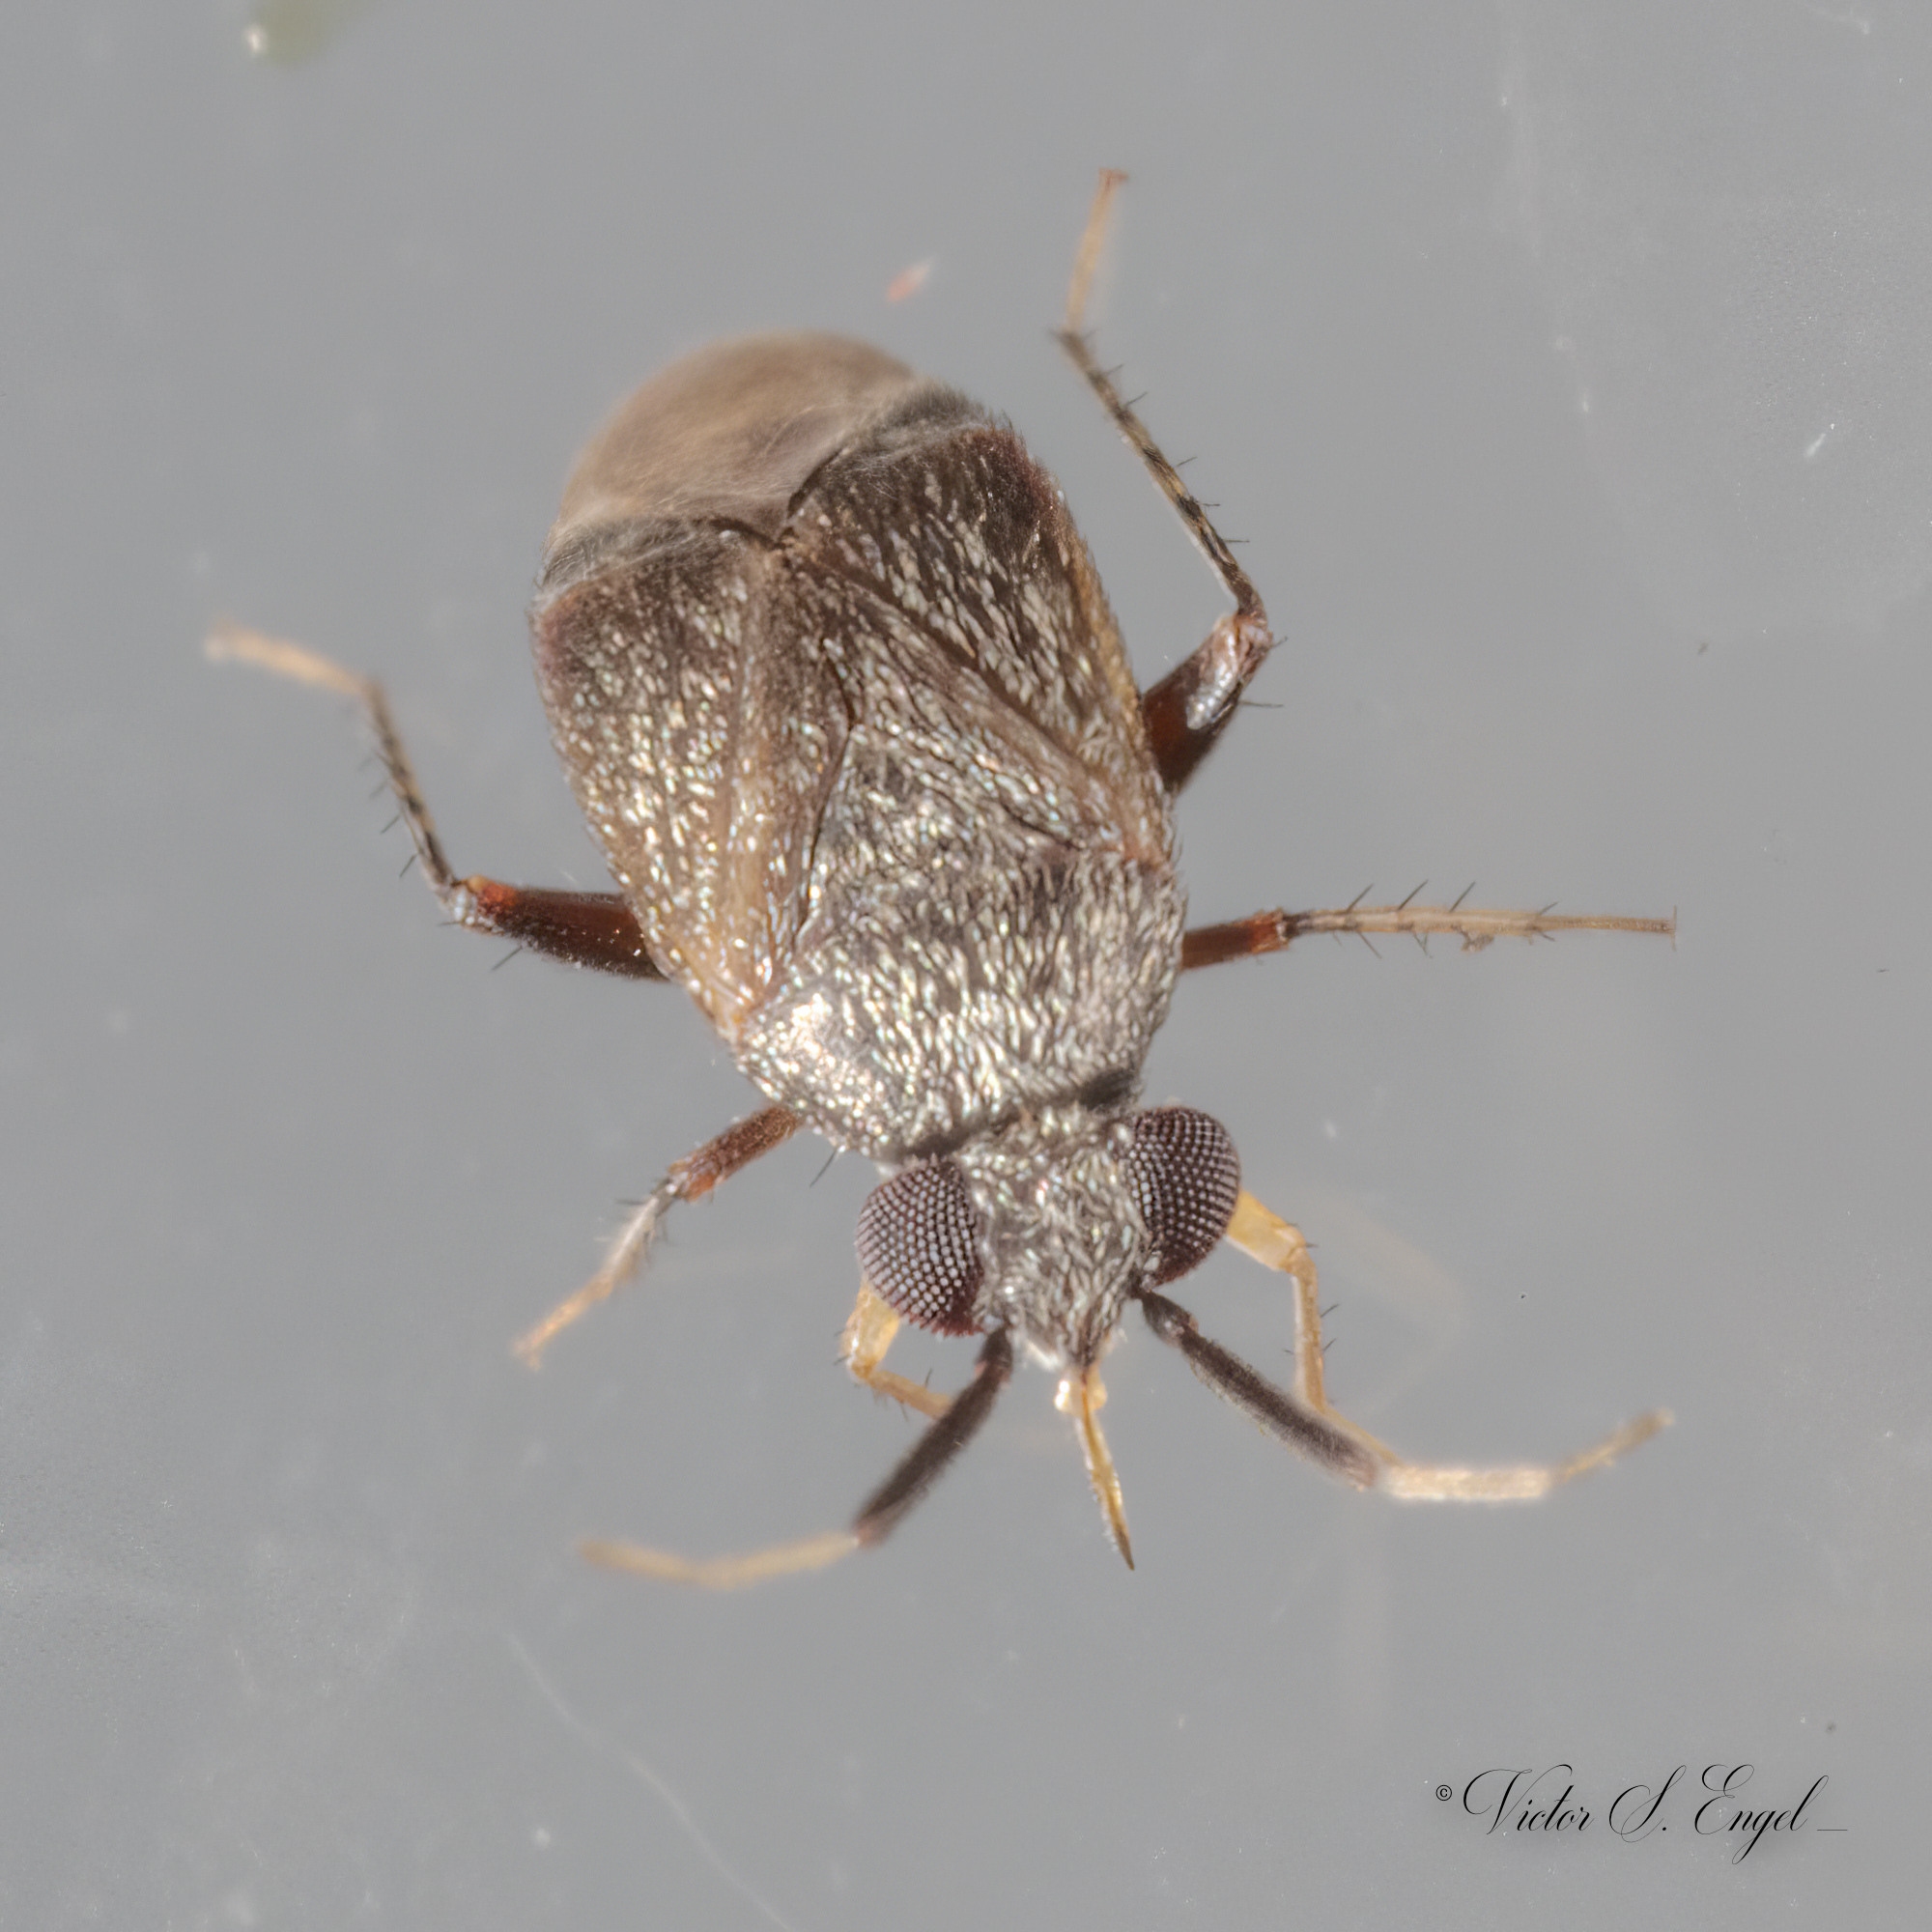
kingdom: Animalia
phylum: Arthropoda
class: Insecta
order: Hemiptera
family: Miridae
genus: Rhinacloa
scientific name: Rhinacloa forticornis
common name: Brown cotton mirid
